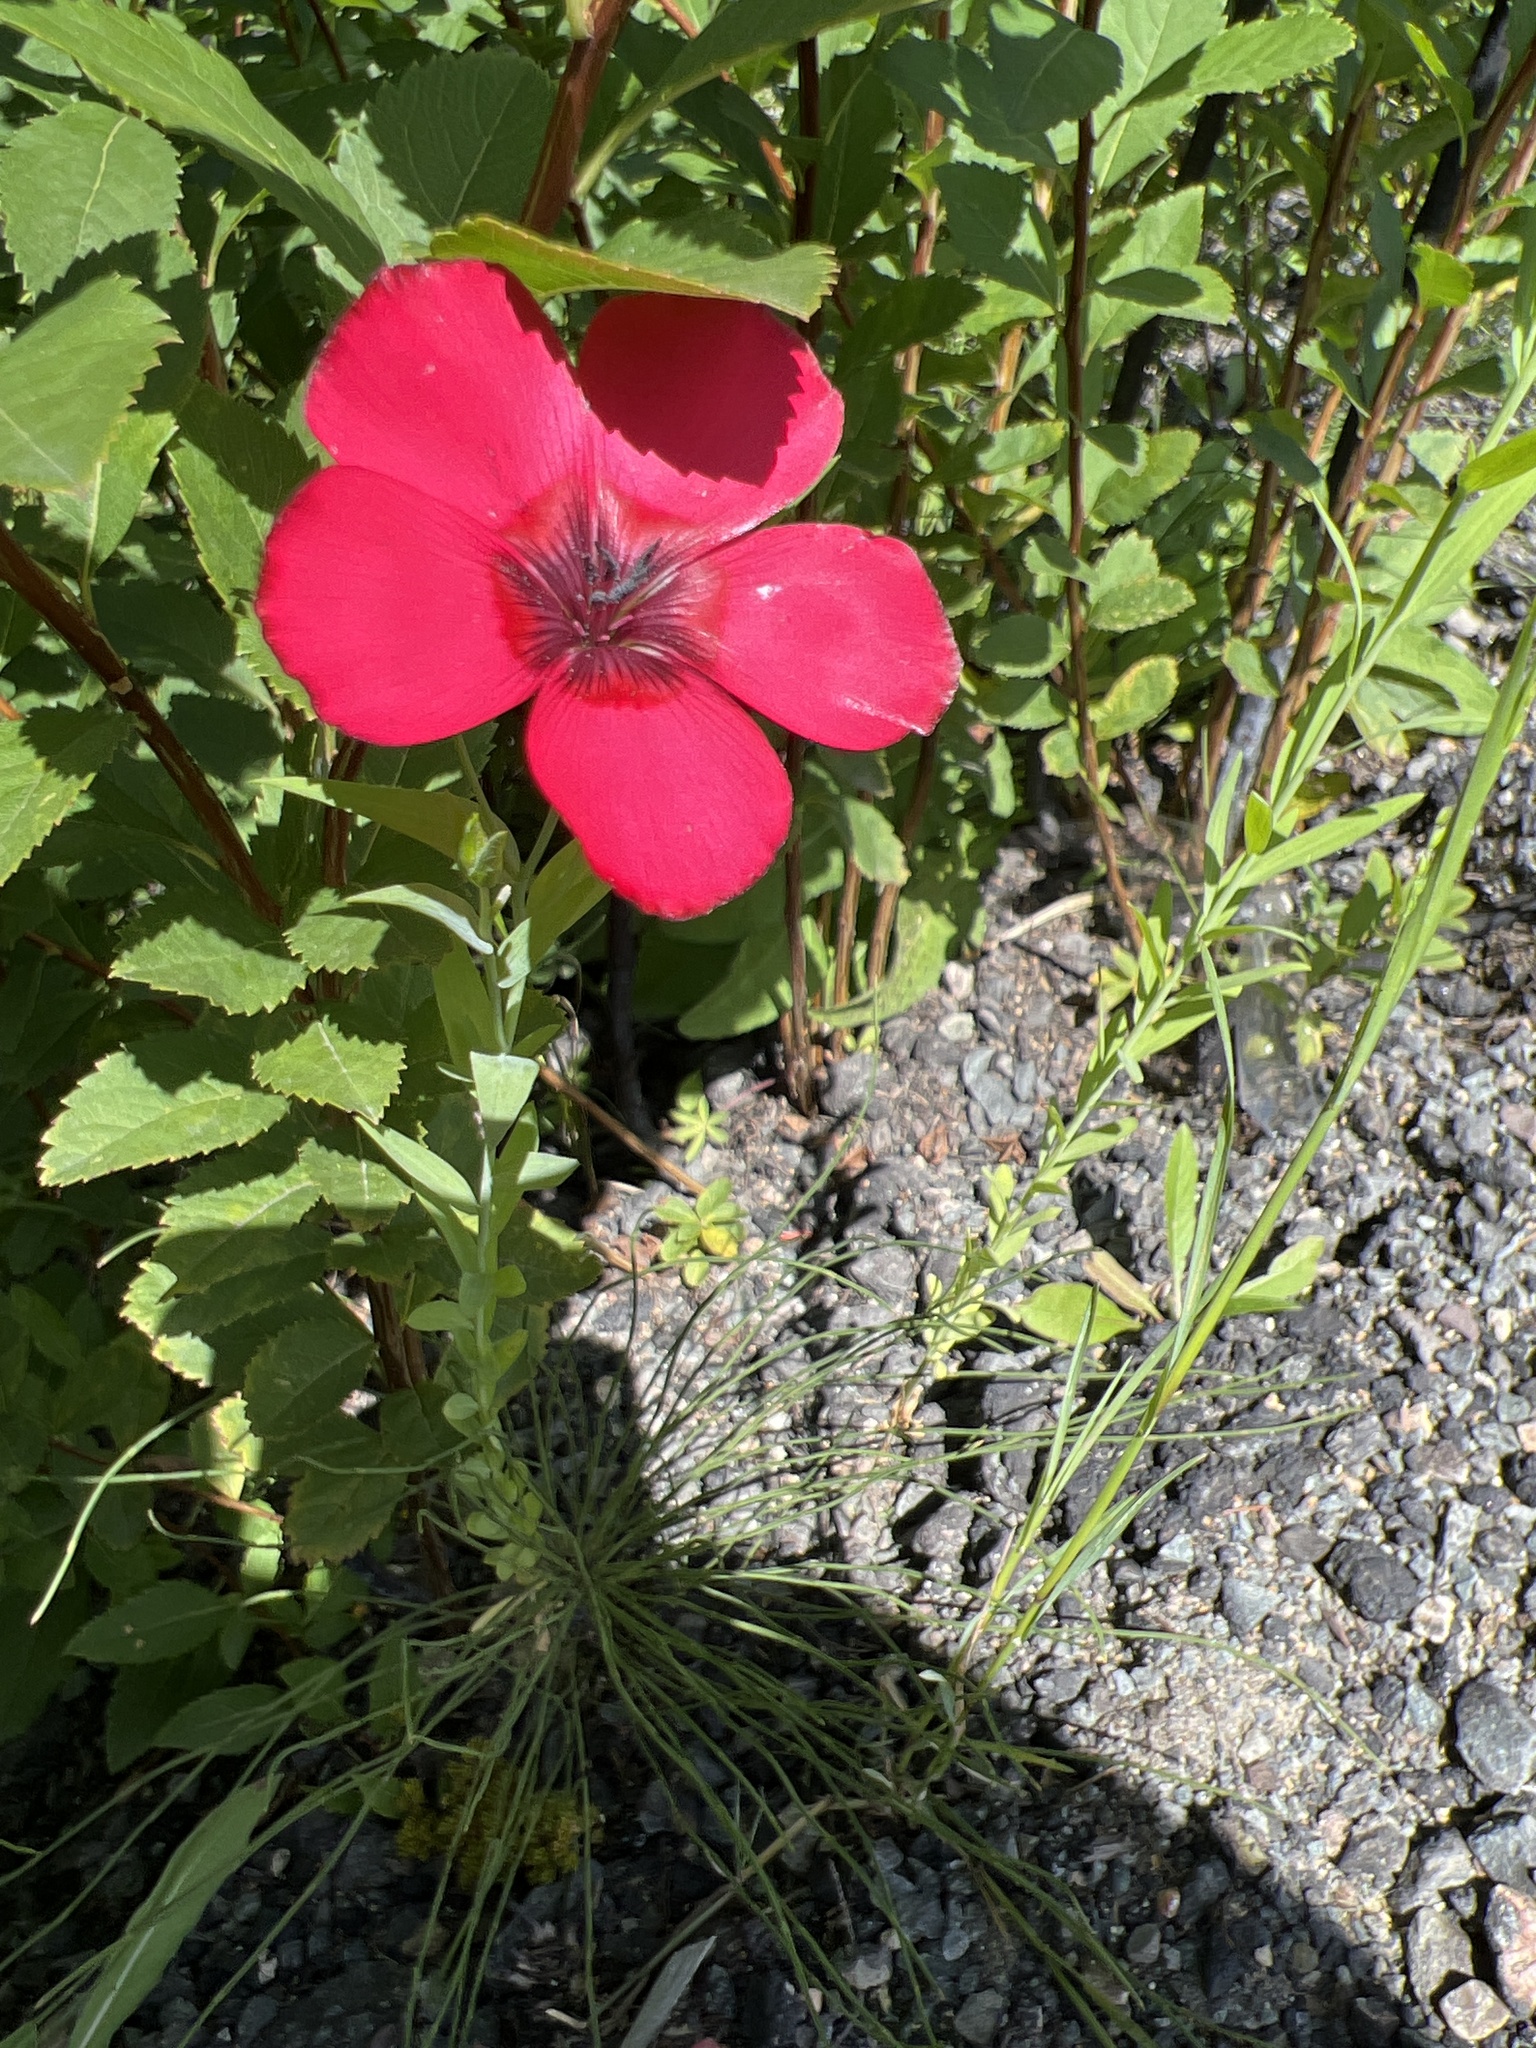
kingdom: Plantae
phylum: Tracheophyta
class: Magnoliopsida
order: Malpighiales
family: Linaceae
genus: Linum
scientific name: Linum grandiflorum
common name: Crimson flax
